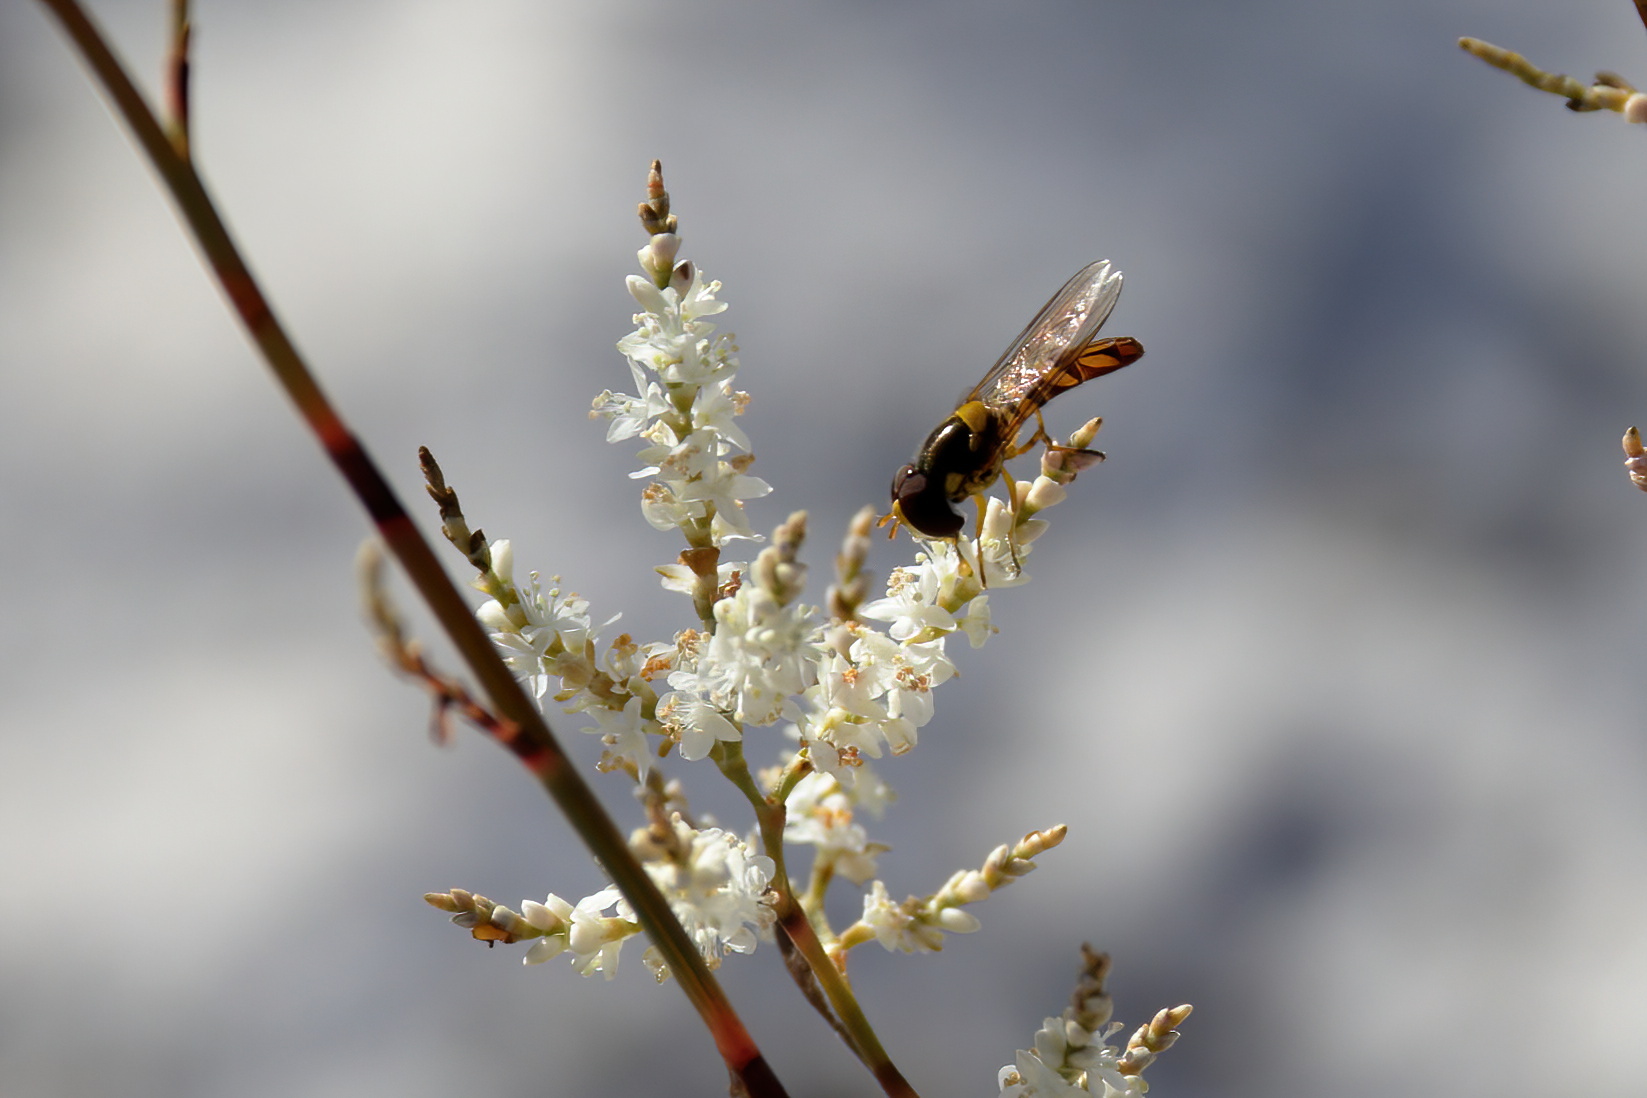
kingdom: Animalia
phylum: Arthropoda
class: Insecta
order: Diptera
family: Syrphidae
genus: Allograpta
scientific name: Allograpta obliqua
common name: Common oblique syrphid
